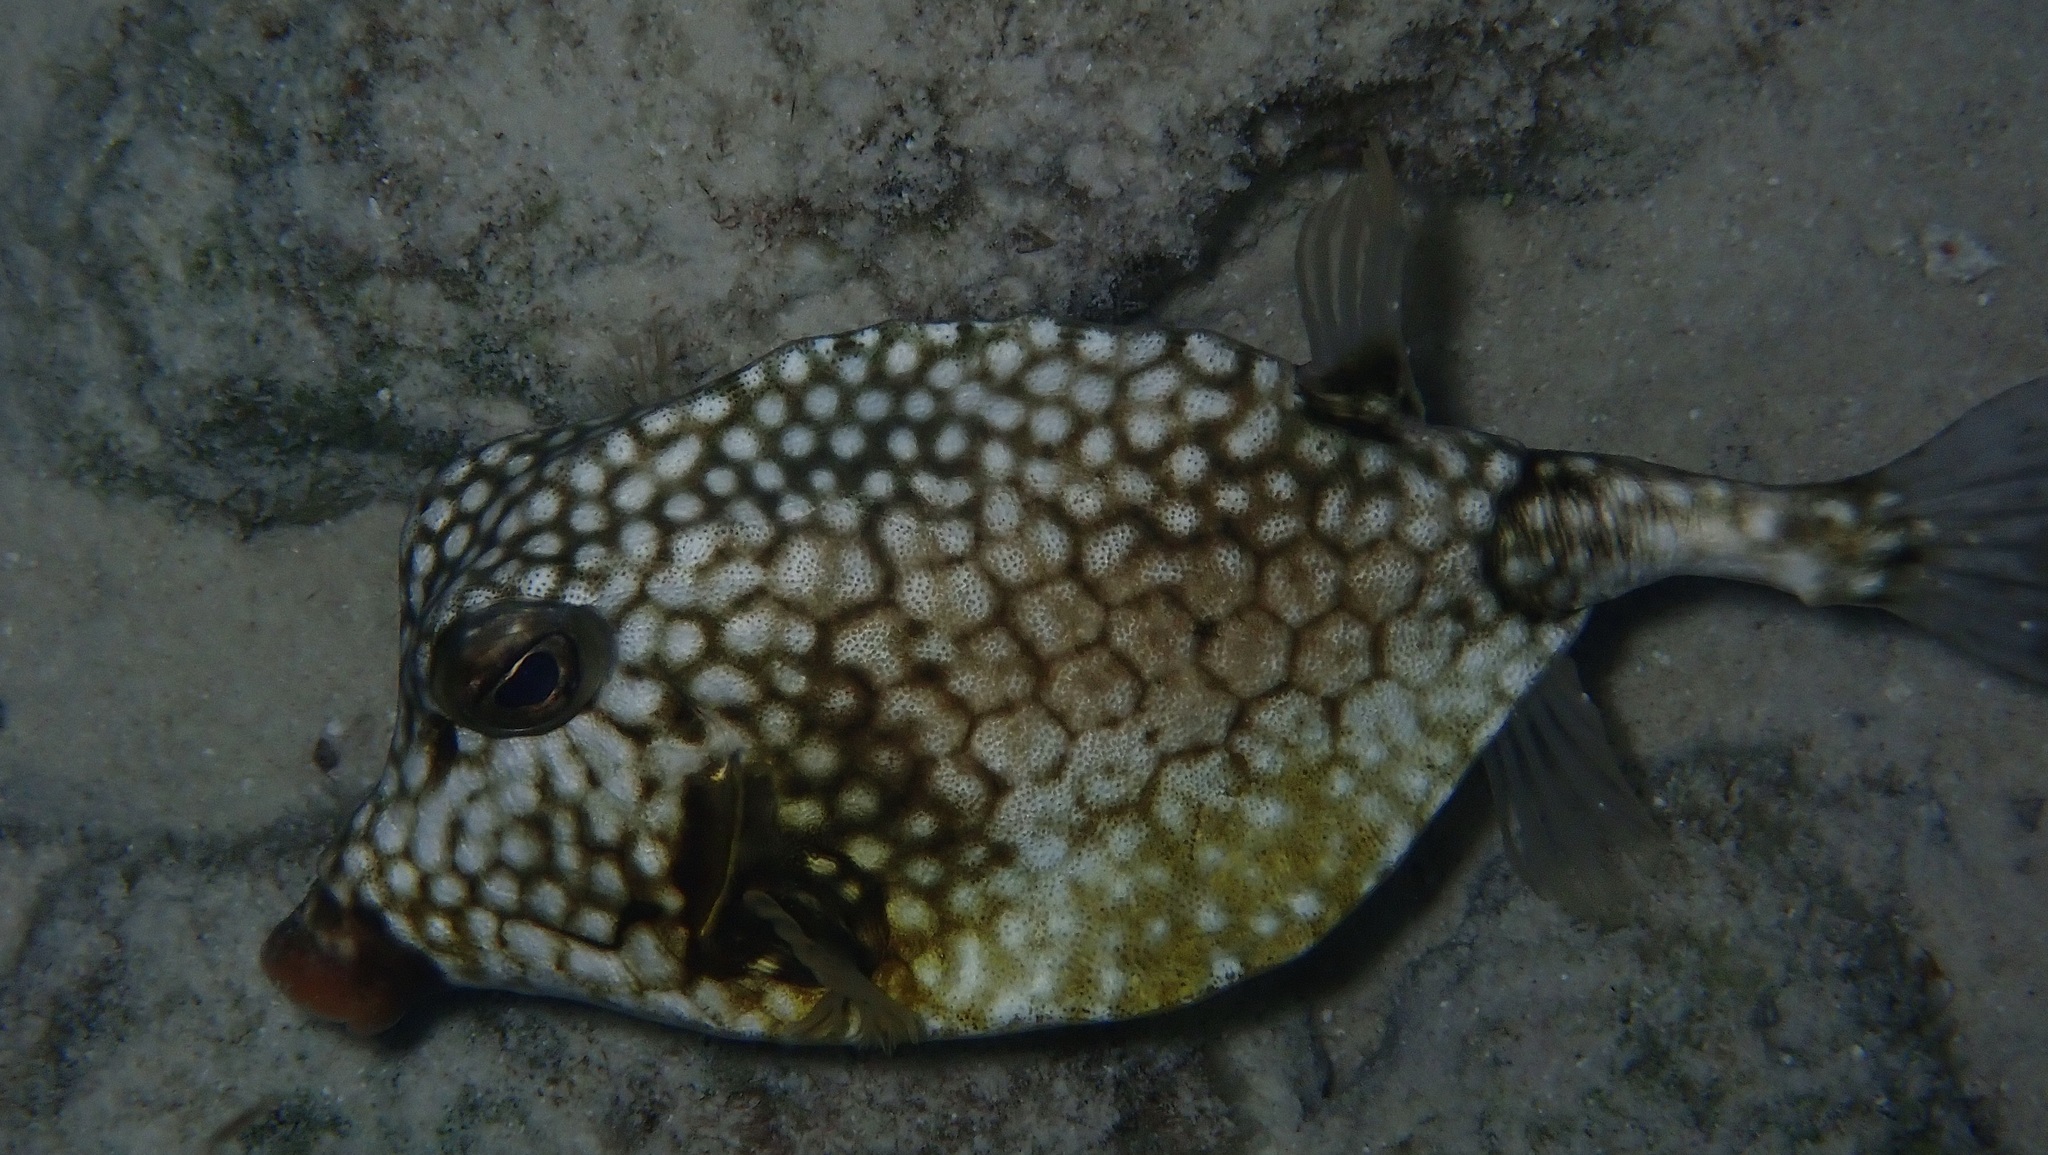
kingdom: Animalia
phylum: Chordata
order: Tetraodontiformes
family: Ostraciidae
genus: Lactophrys
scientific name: Lactophrys triqueter
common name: Smooth trunkfish
